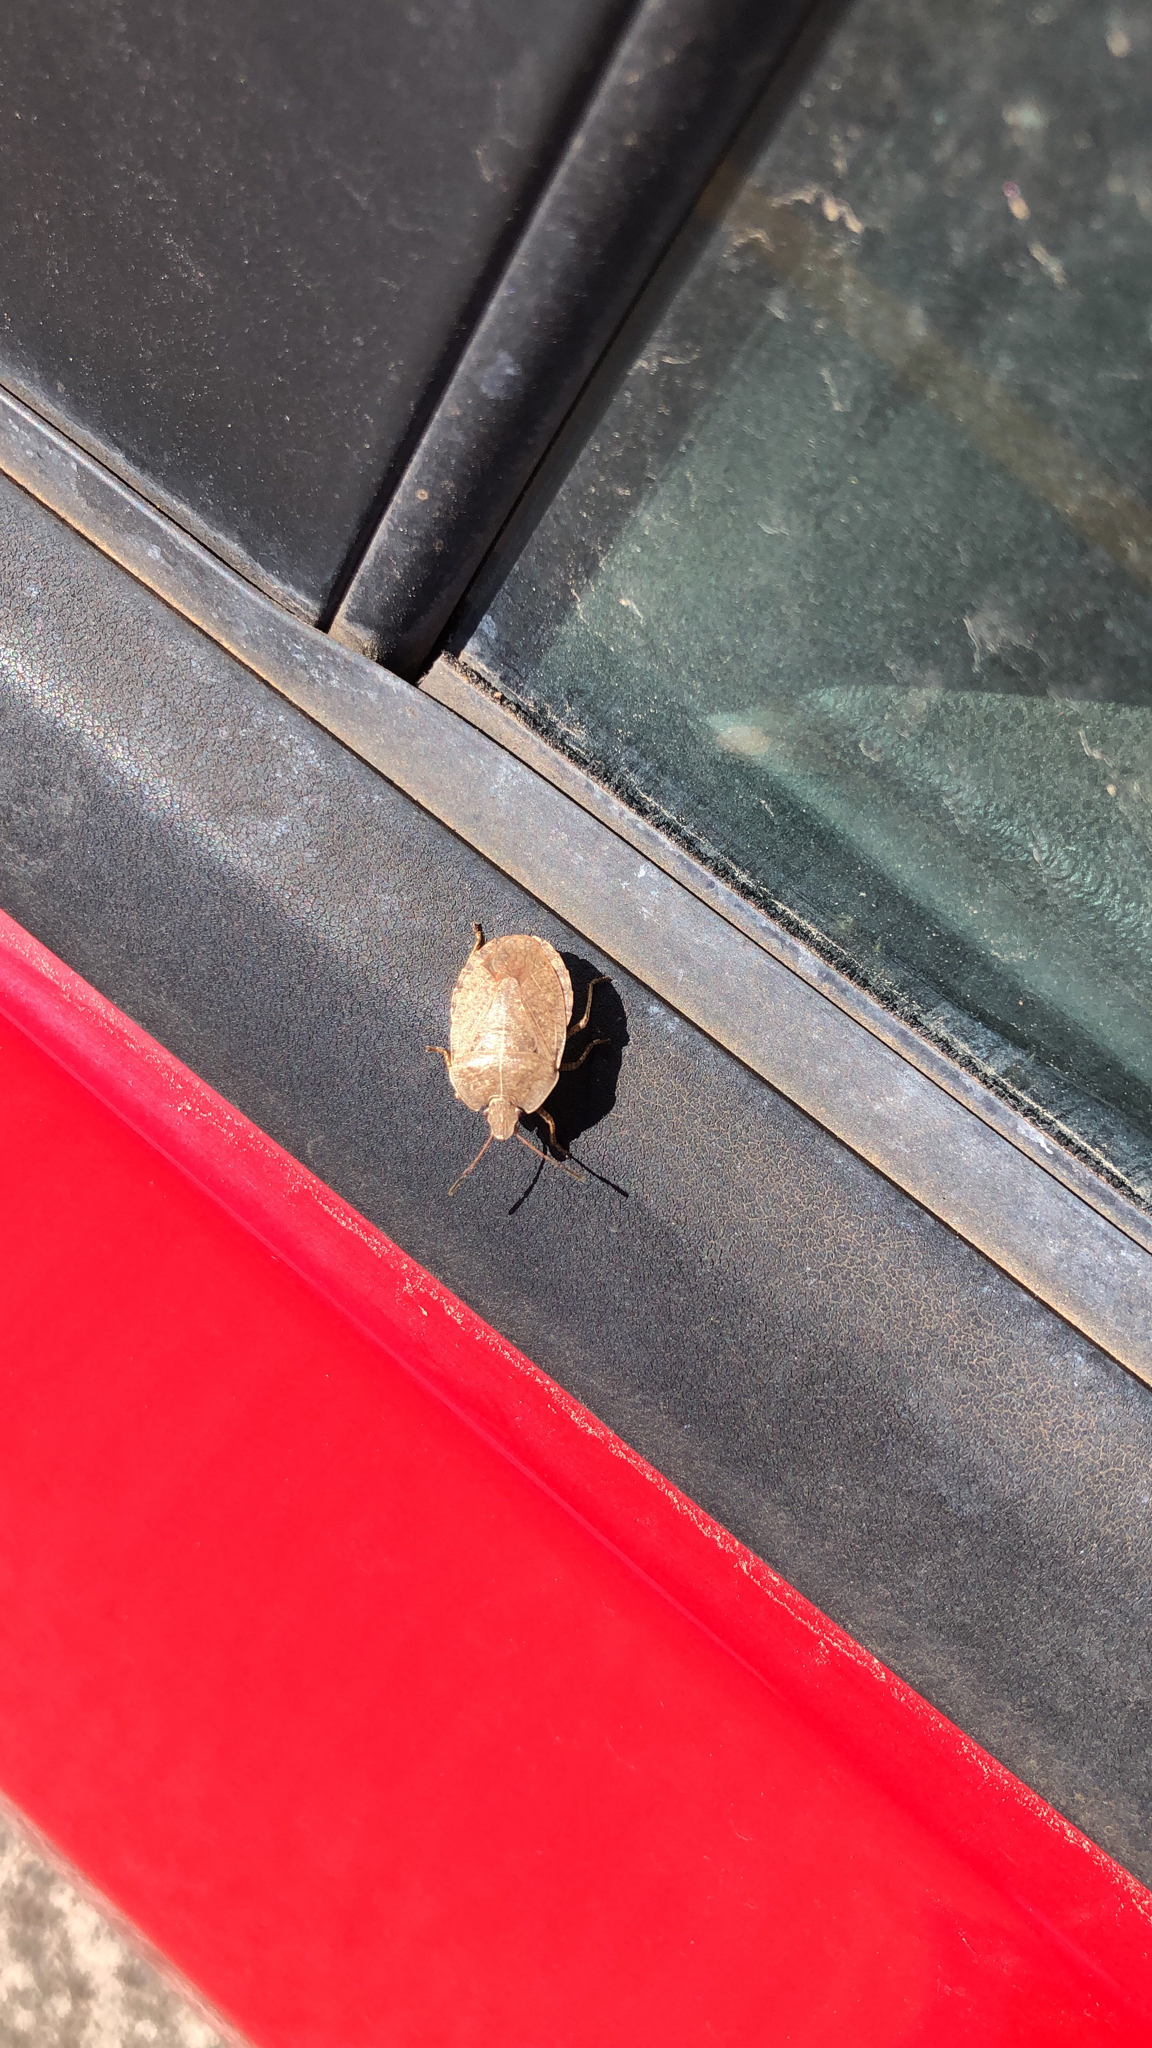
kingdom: Animalia
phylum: Arthropoda
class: Insecta
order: Hemiptera
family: Pentatomidae
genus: Menecles
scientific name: Menecles insertus
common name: Elf shoe stink bug
